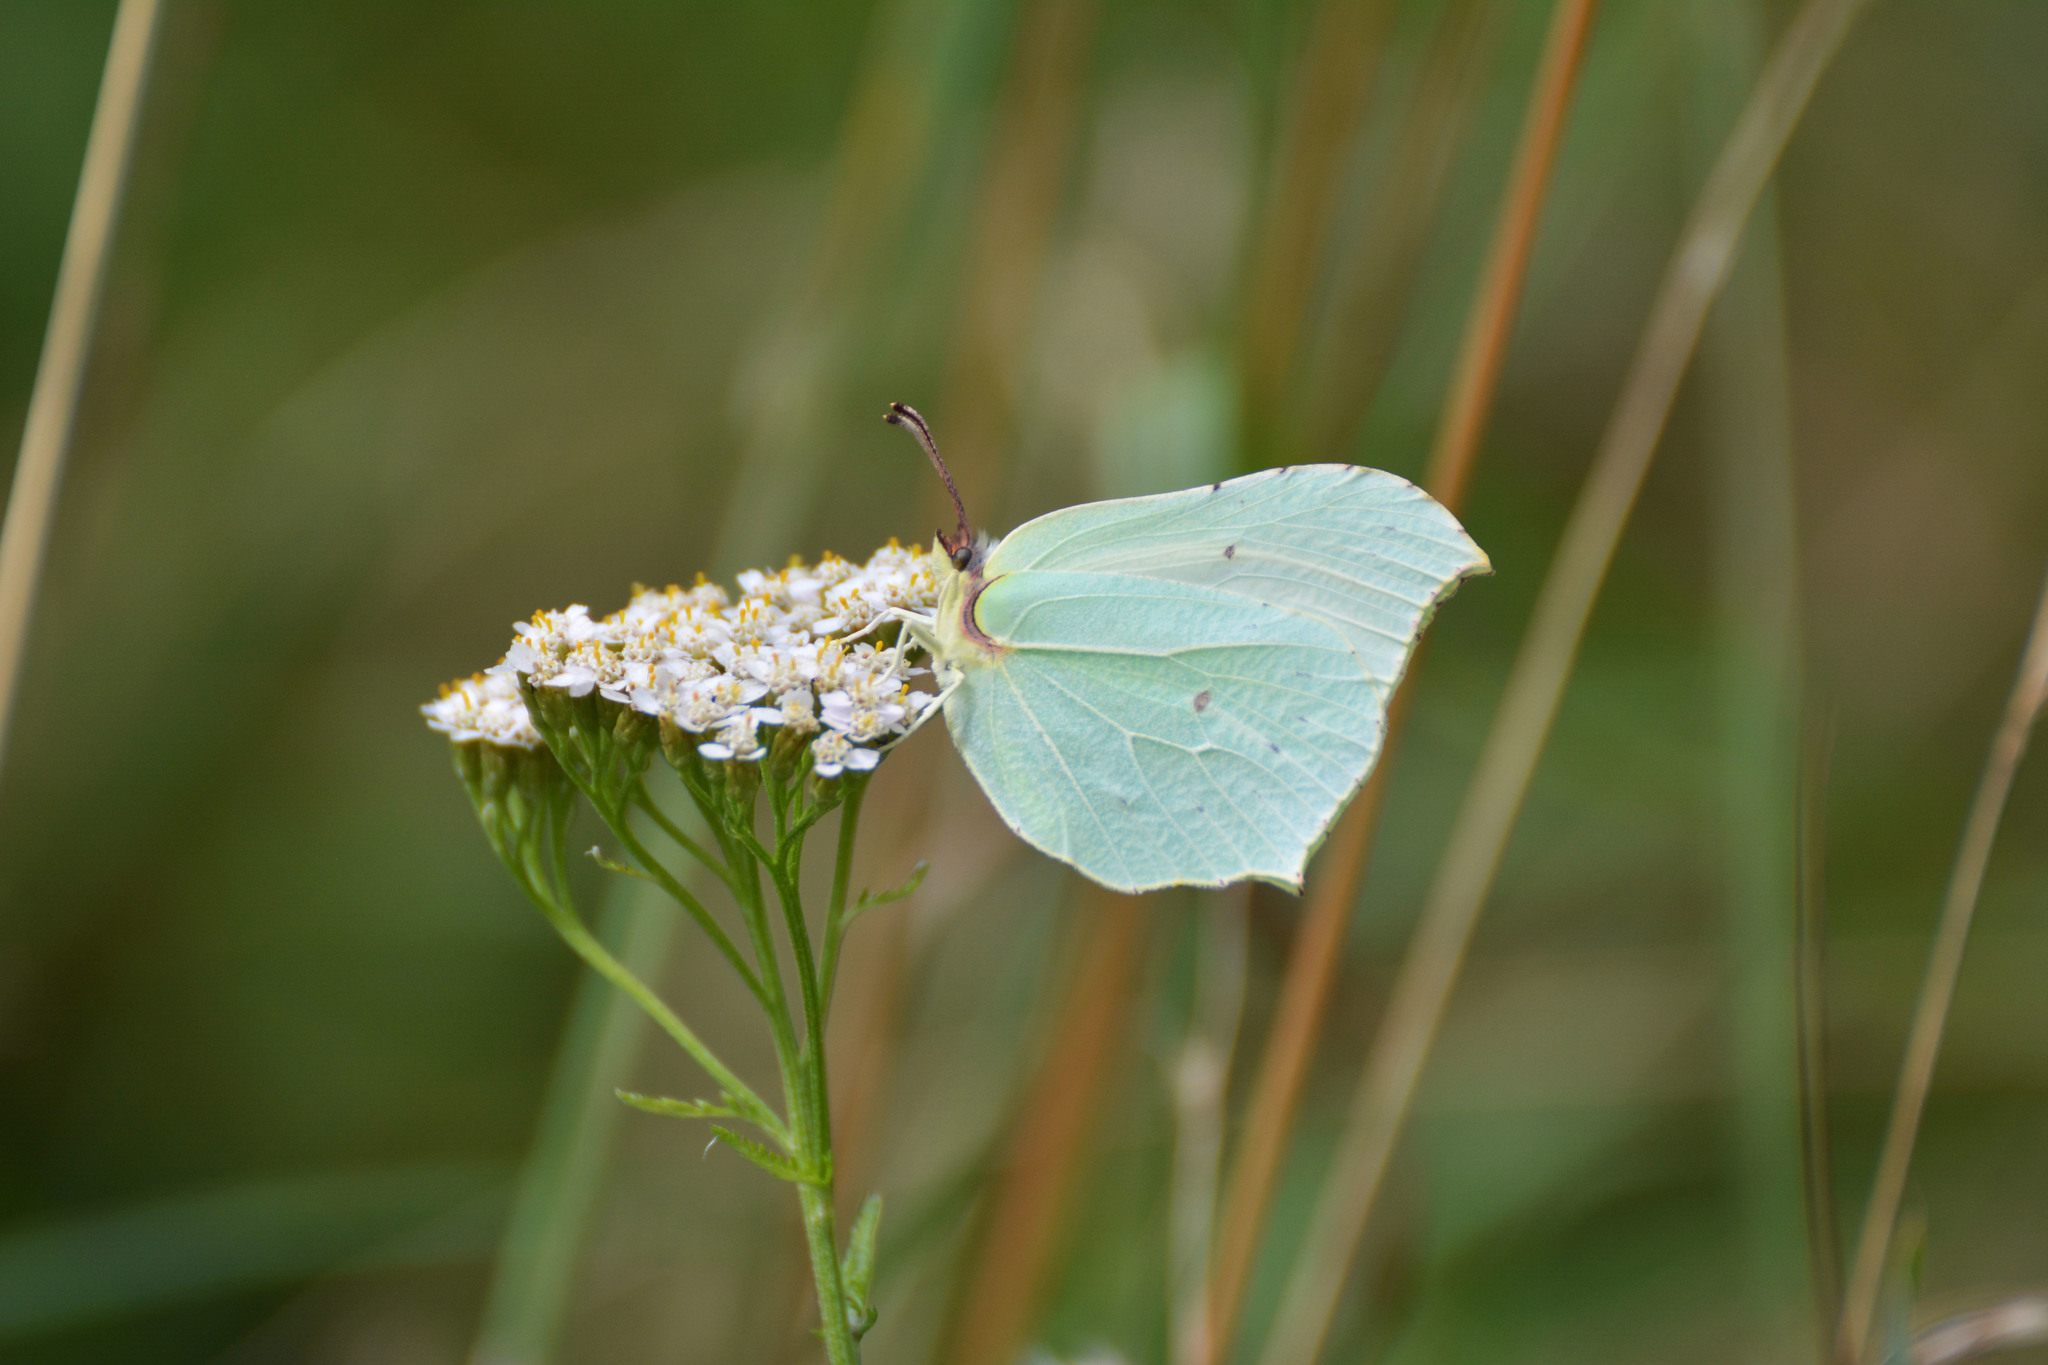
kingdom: Animalia
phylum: Arthropoda
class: Insecta
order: Lepidoptera
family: Pieridae
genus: Gonepteryx
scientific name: Gonepteryx rhamni
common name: Brimstone
